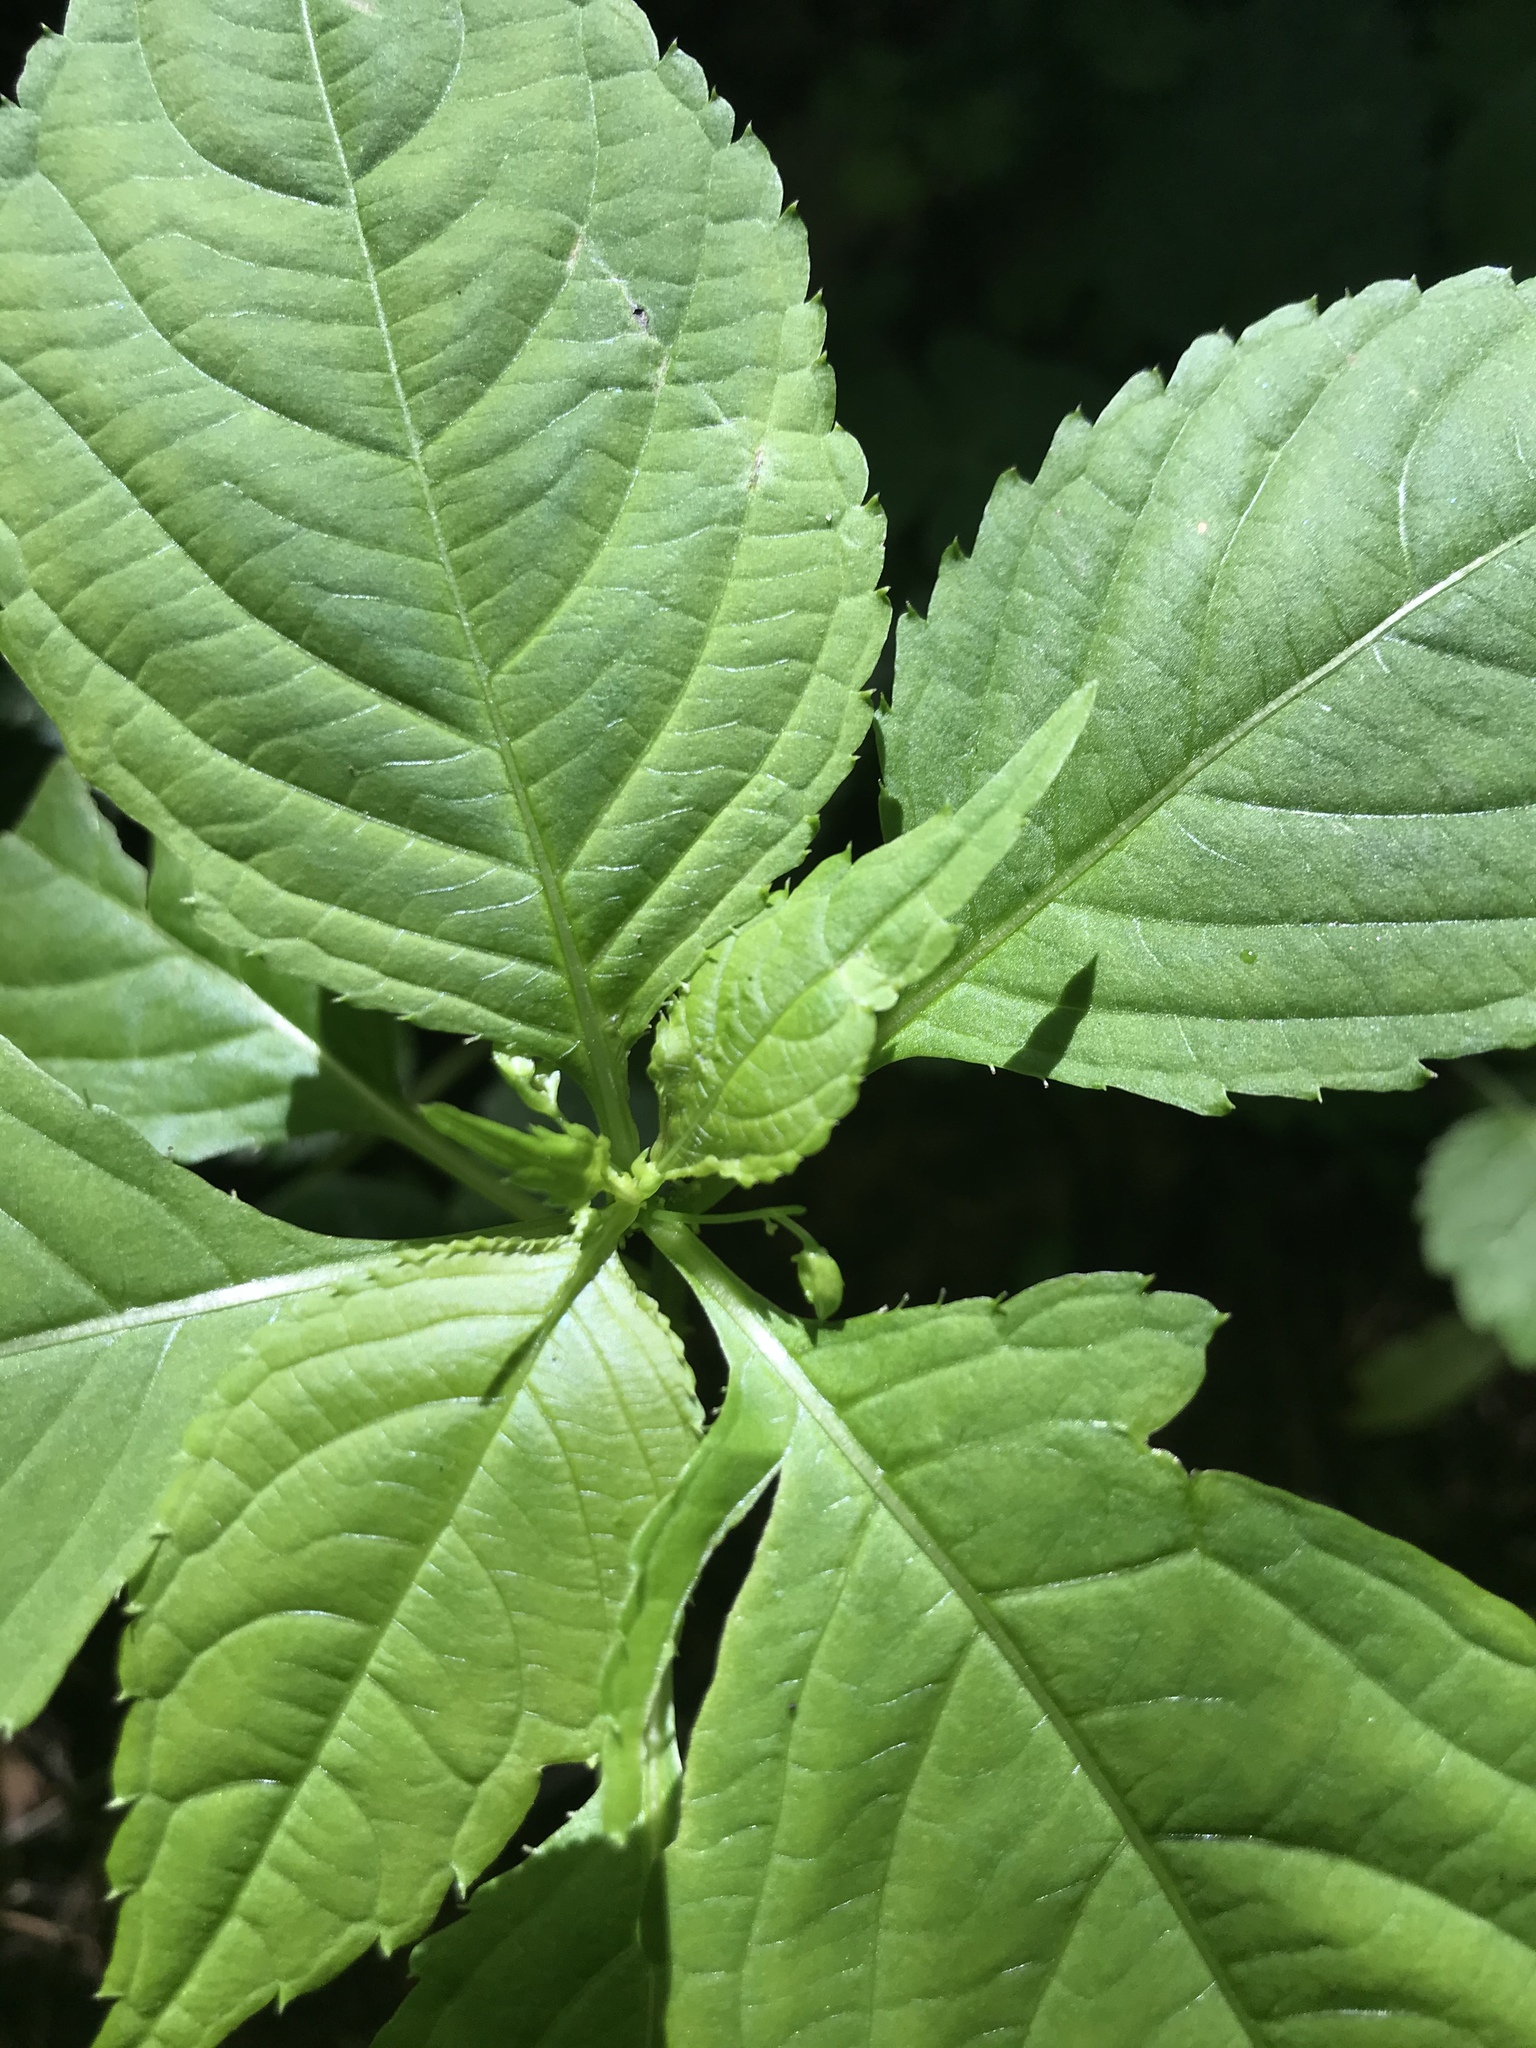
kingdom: Plantae
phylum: Tracheophyta
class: Magnoliopsida
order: Ericales
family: Balsaminaceae
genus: Impatiens
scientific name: Impatiens parviflora
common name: Small balsam
